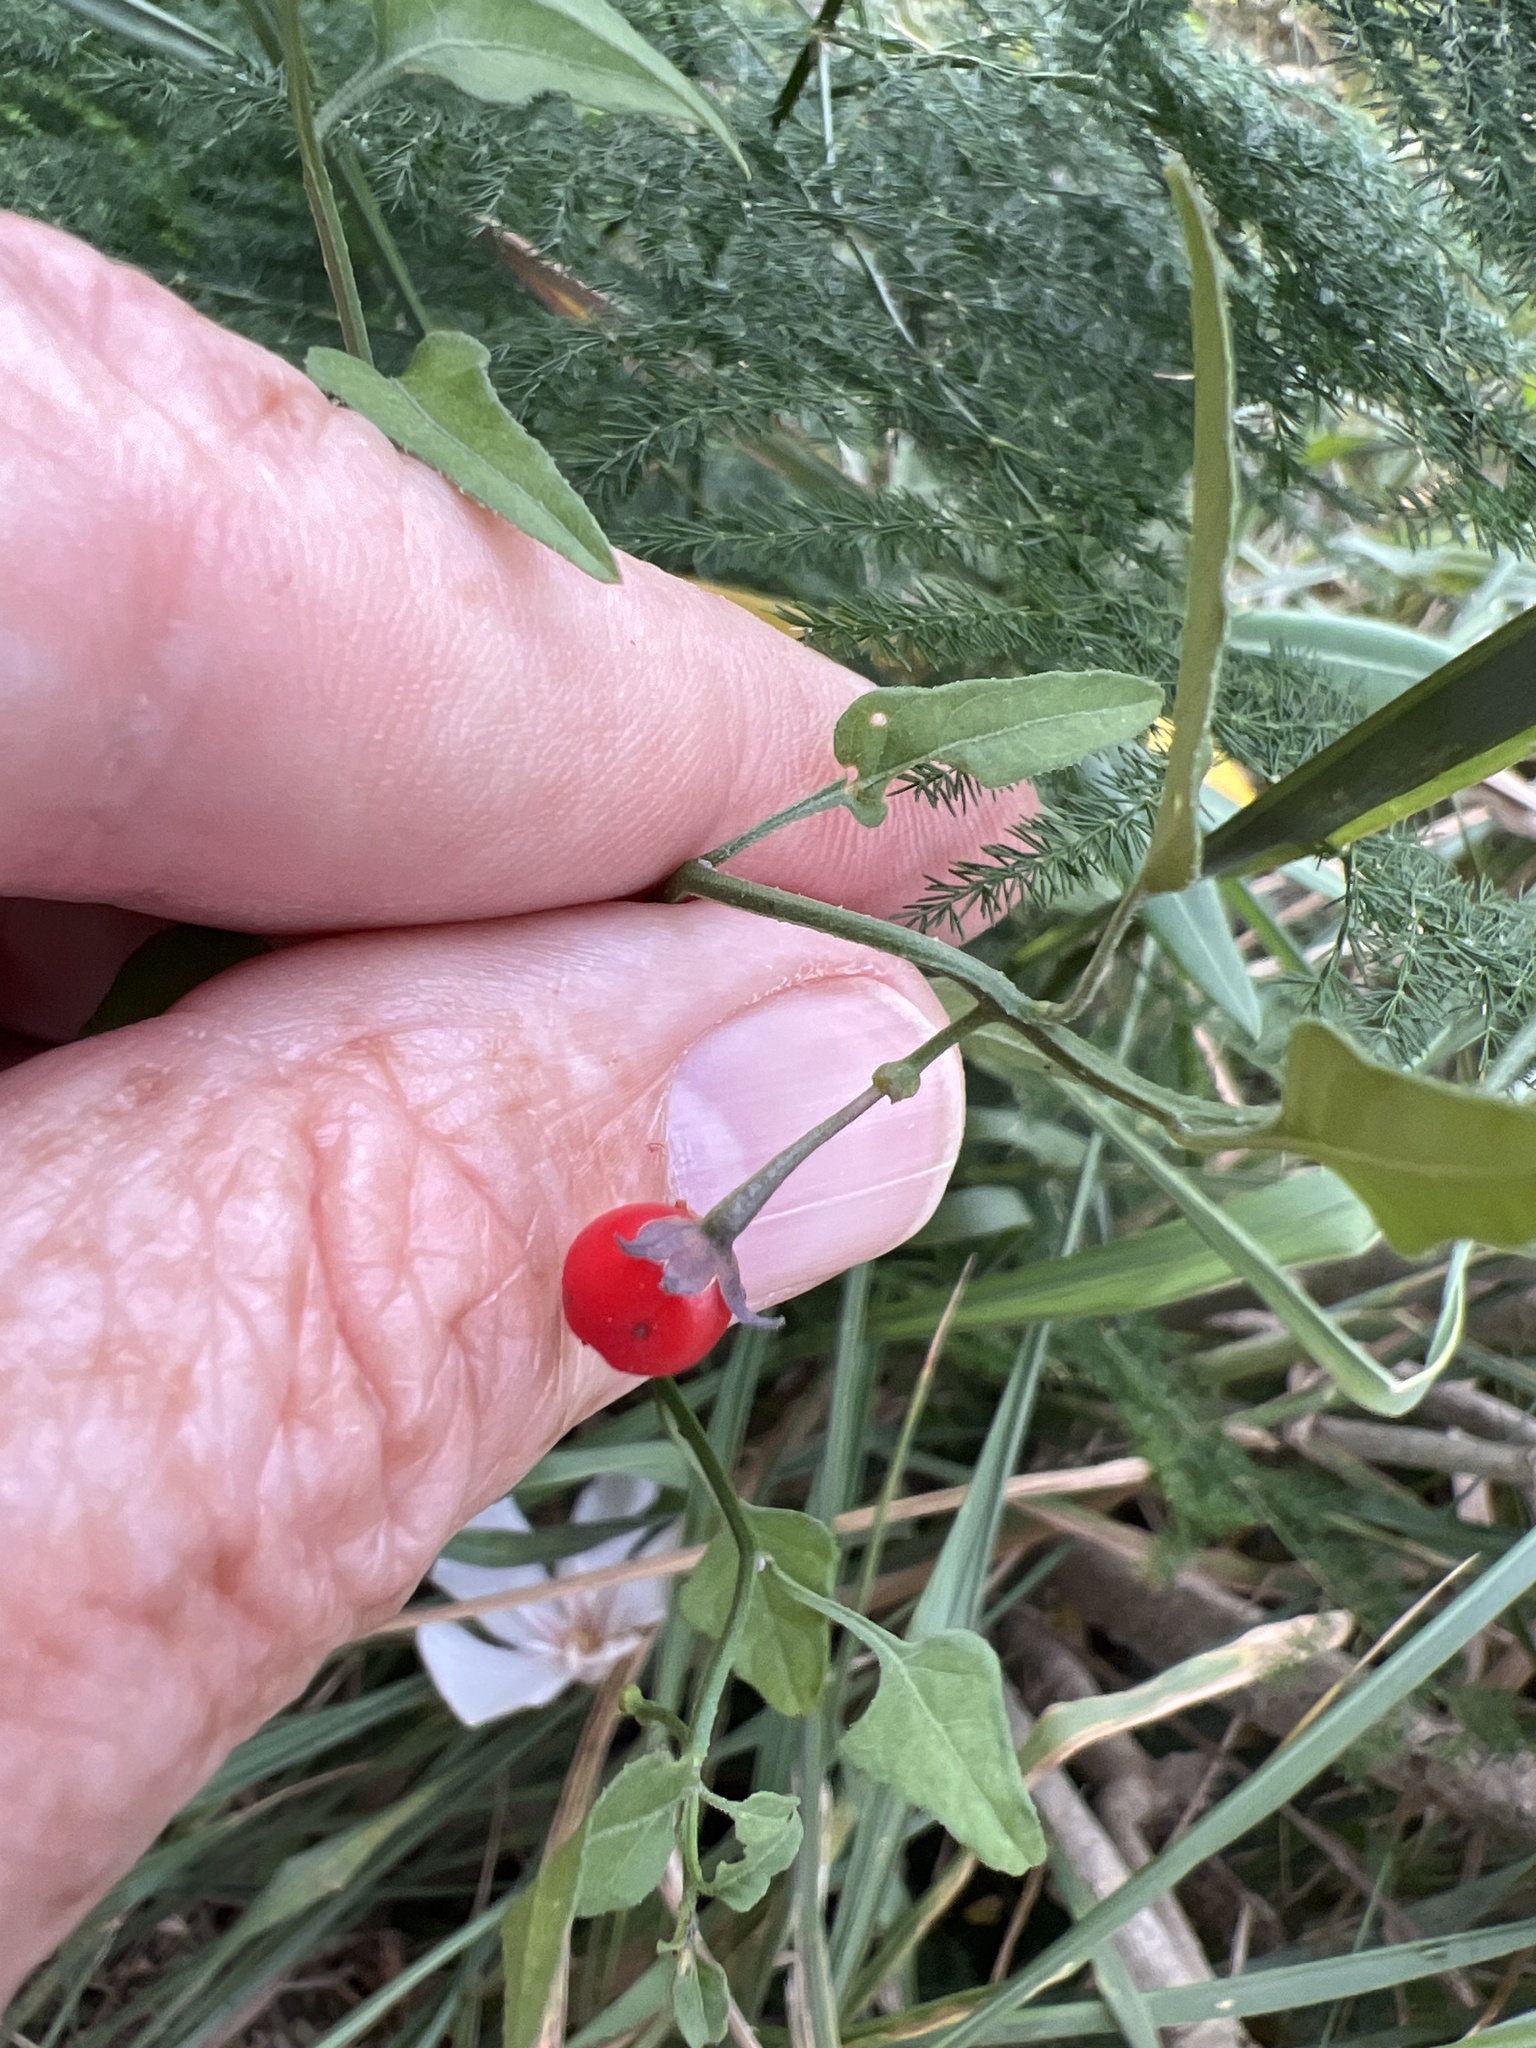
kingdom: Plantae
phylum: Tracheophyta
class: Magnoliopsida
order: Solanales
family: Solanaceae
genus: Solanum
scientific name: Solanum triquetrum
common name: Texas nightshade
